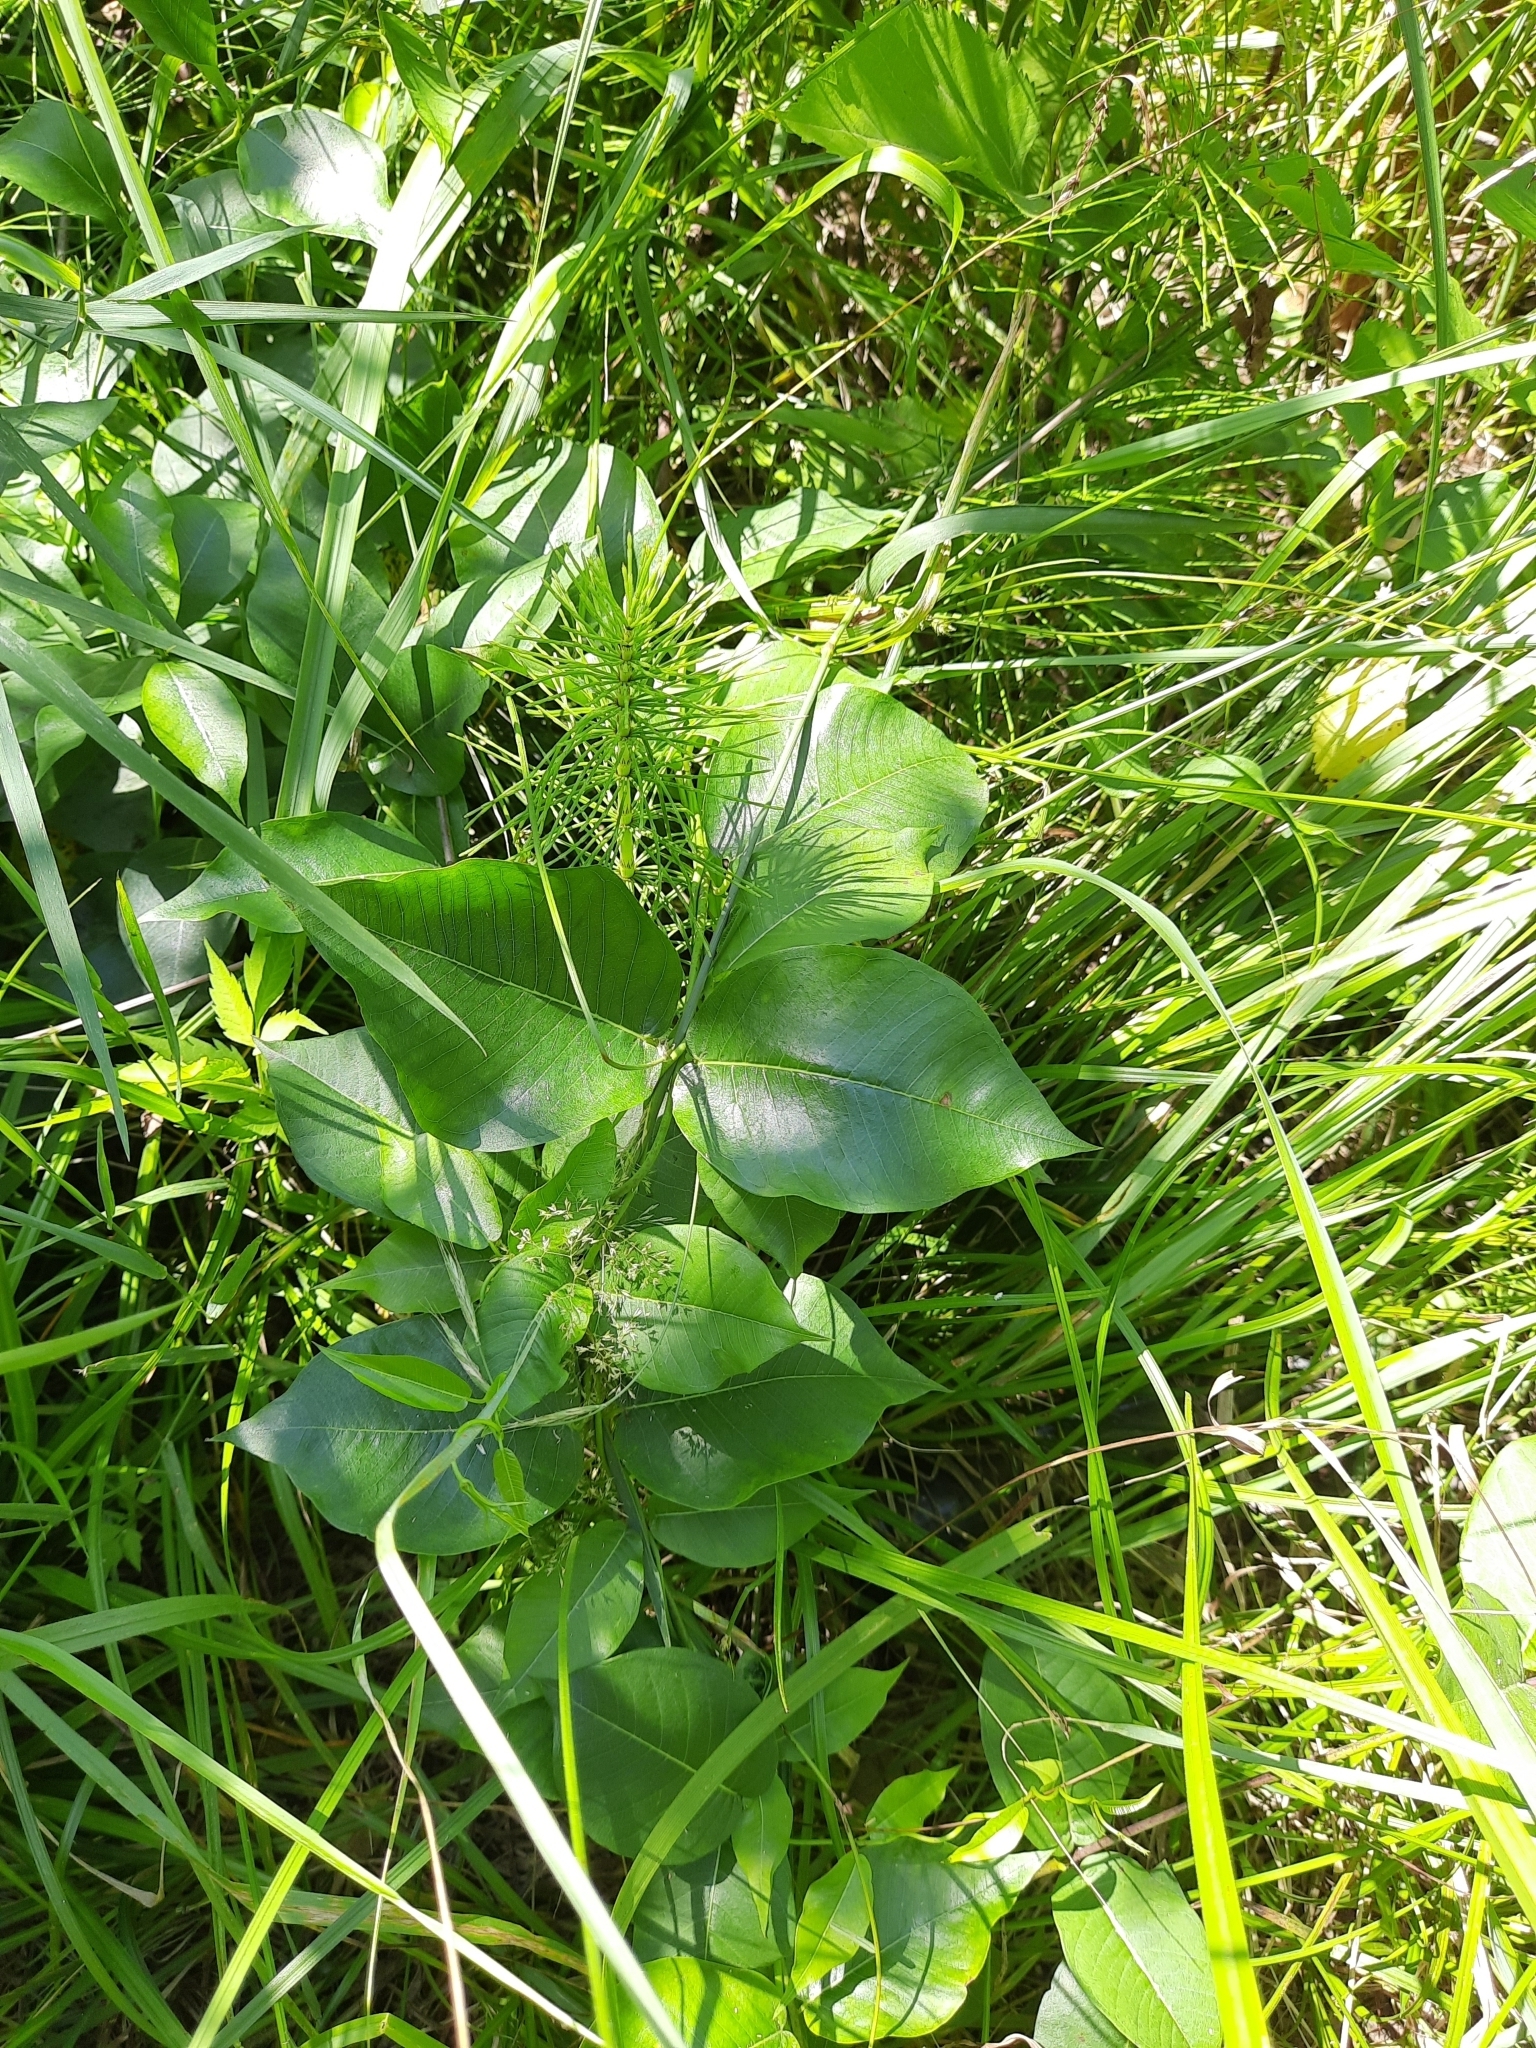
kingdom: Plantae
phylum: Tracheophyta
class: Polypodiopsida
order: Equisetales
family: Equisetaceae
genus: Equisetum
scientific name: Equisetum telmateia
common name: Great horsetail
